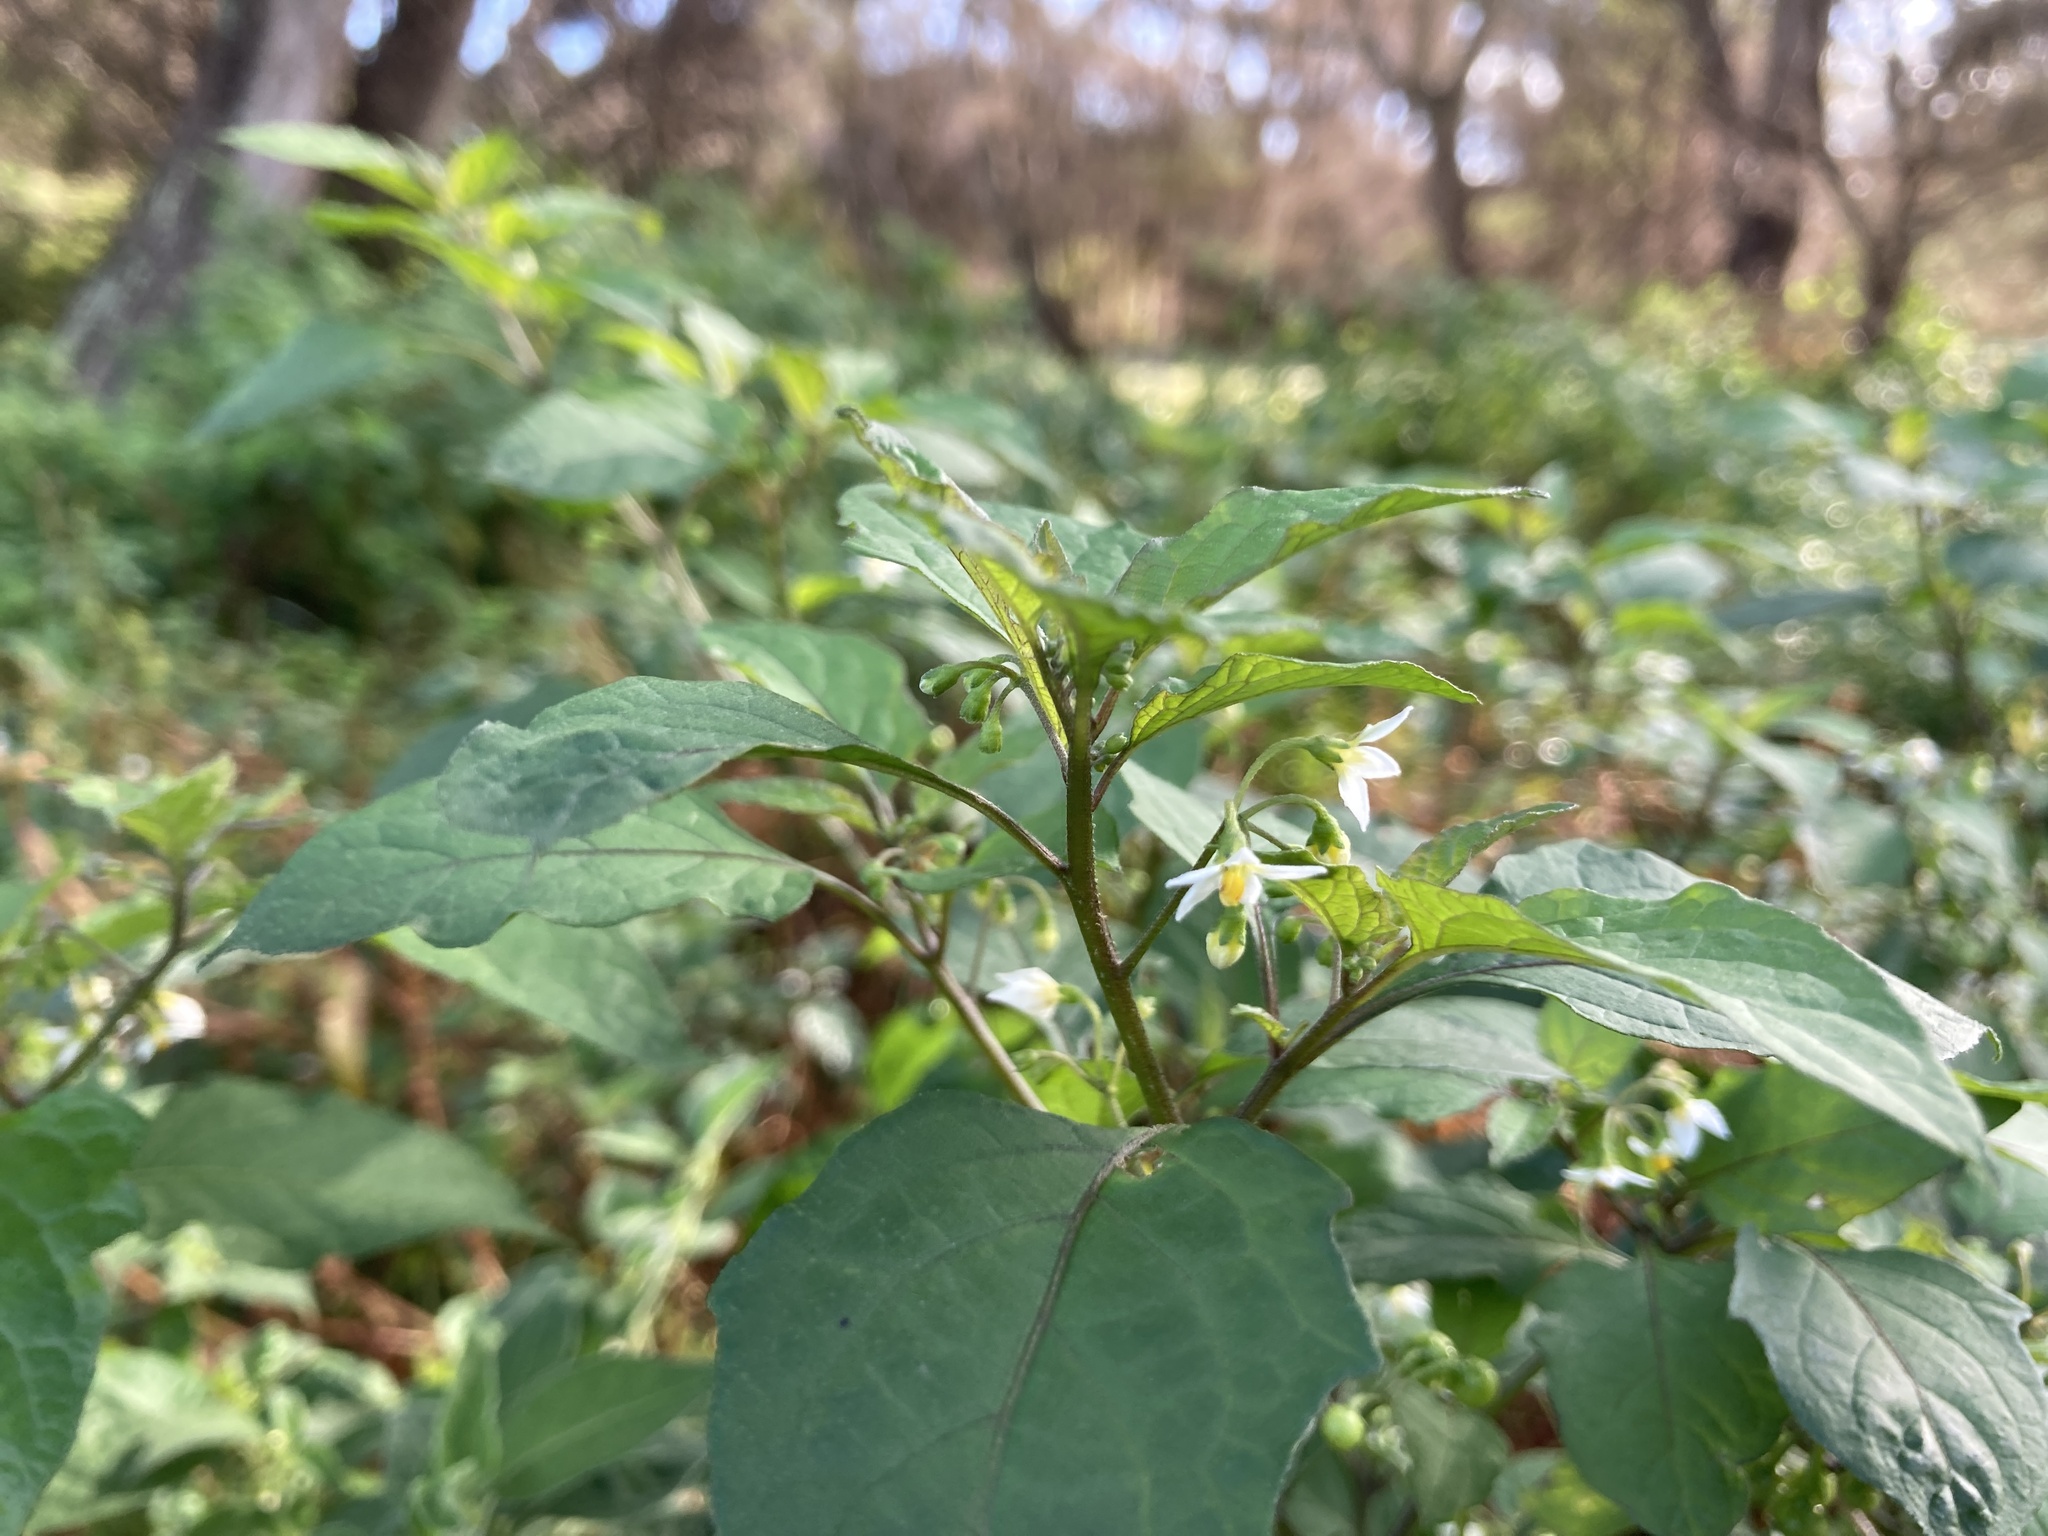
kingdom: Plantae
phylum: Tracheophyta
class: Magnoliopsida
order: Solanales
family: Solanaceae
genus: Solanum
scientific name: Solanum nigrum
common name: Black nightshade
